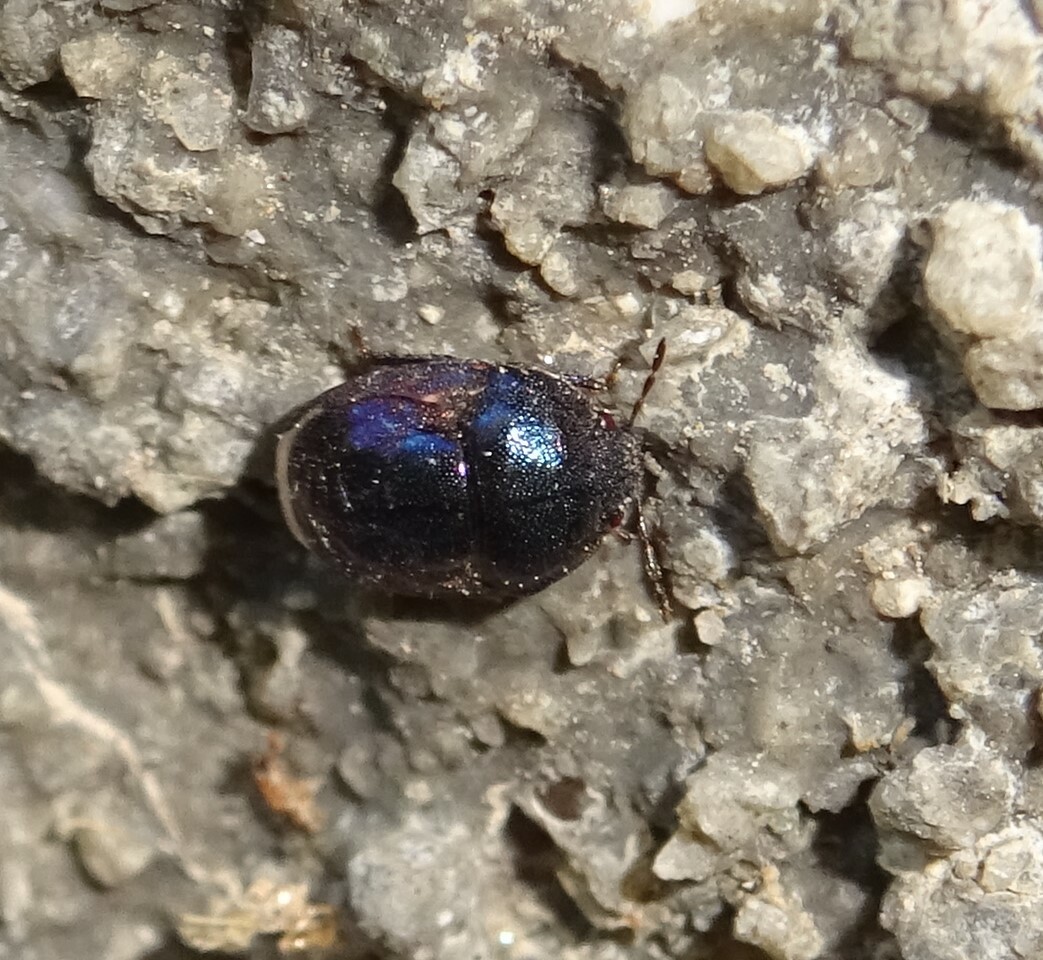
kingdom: Animalia
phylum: Arthropoda
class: Insecta
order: Hemiptera
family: Thyreocoridae
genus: Thyreocoris
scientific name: Thyreocoris scarabaeoides
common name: Negro bug
